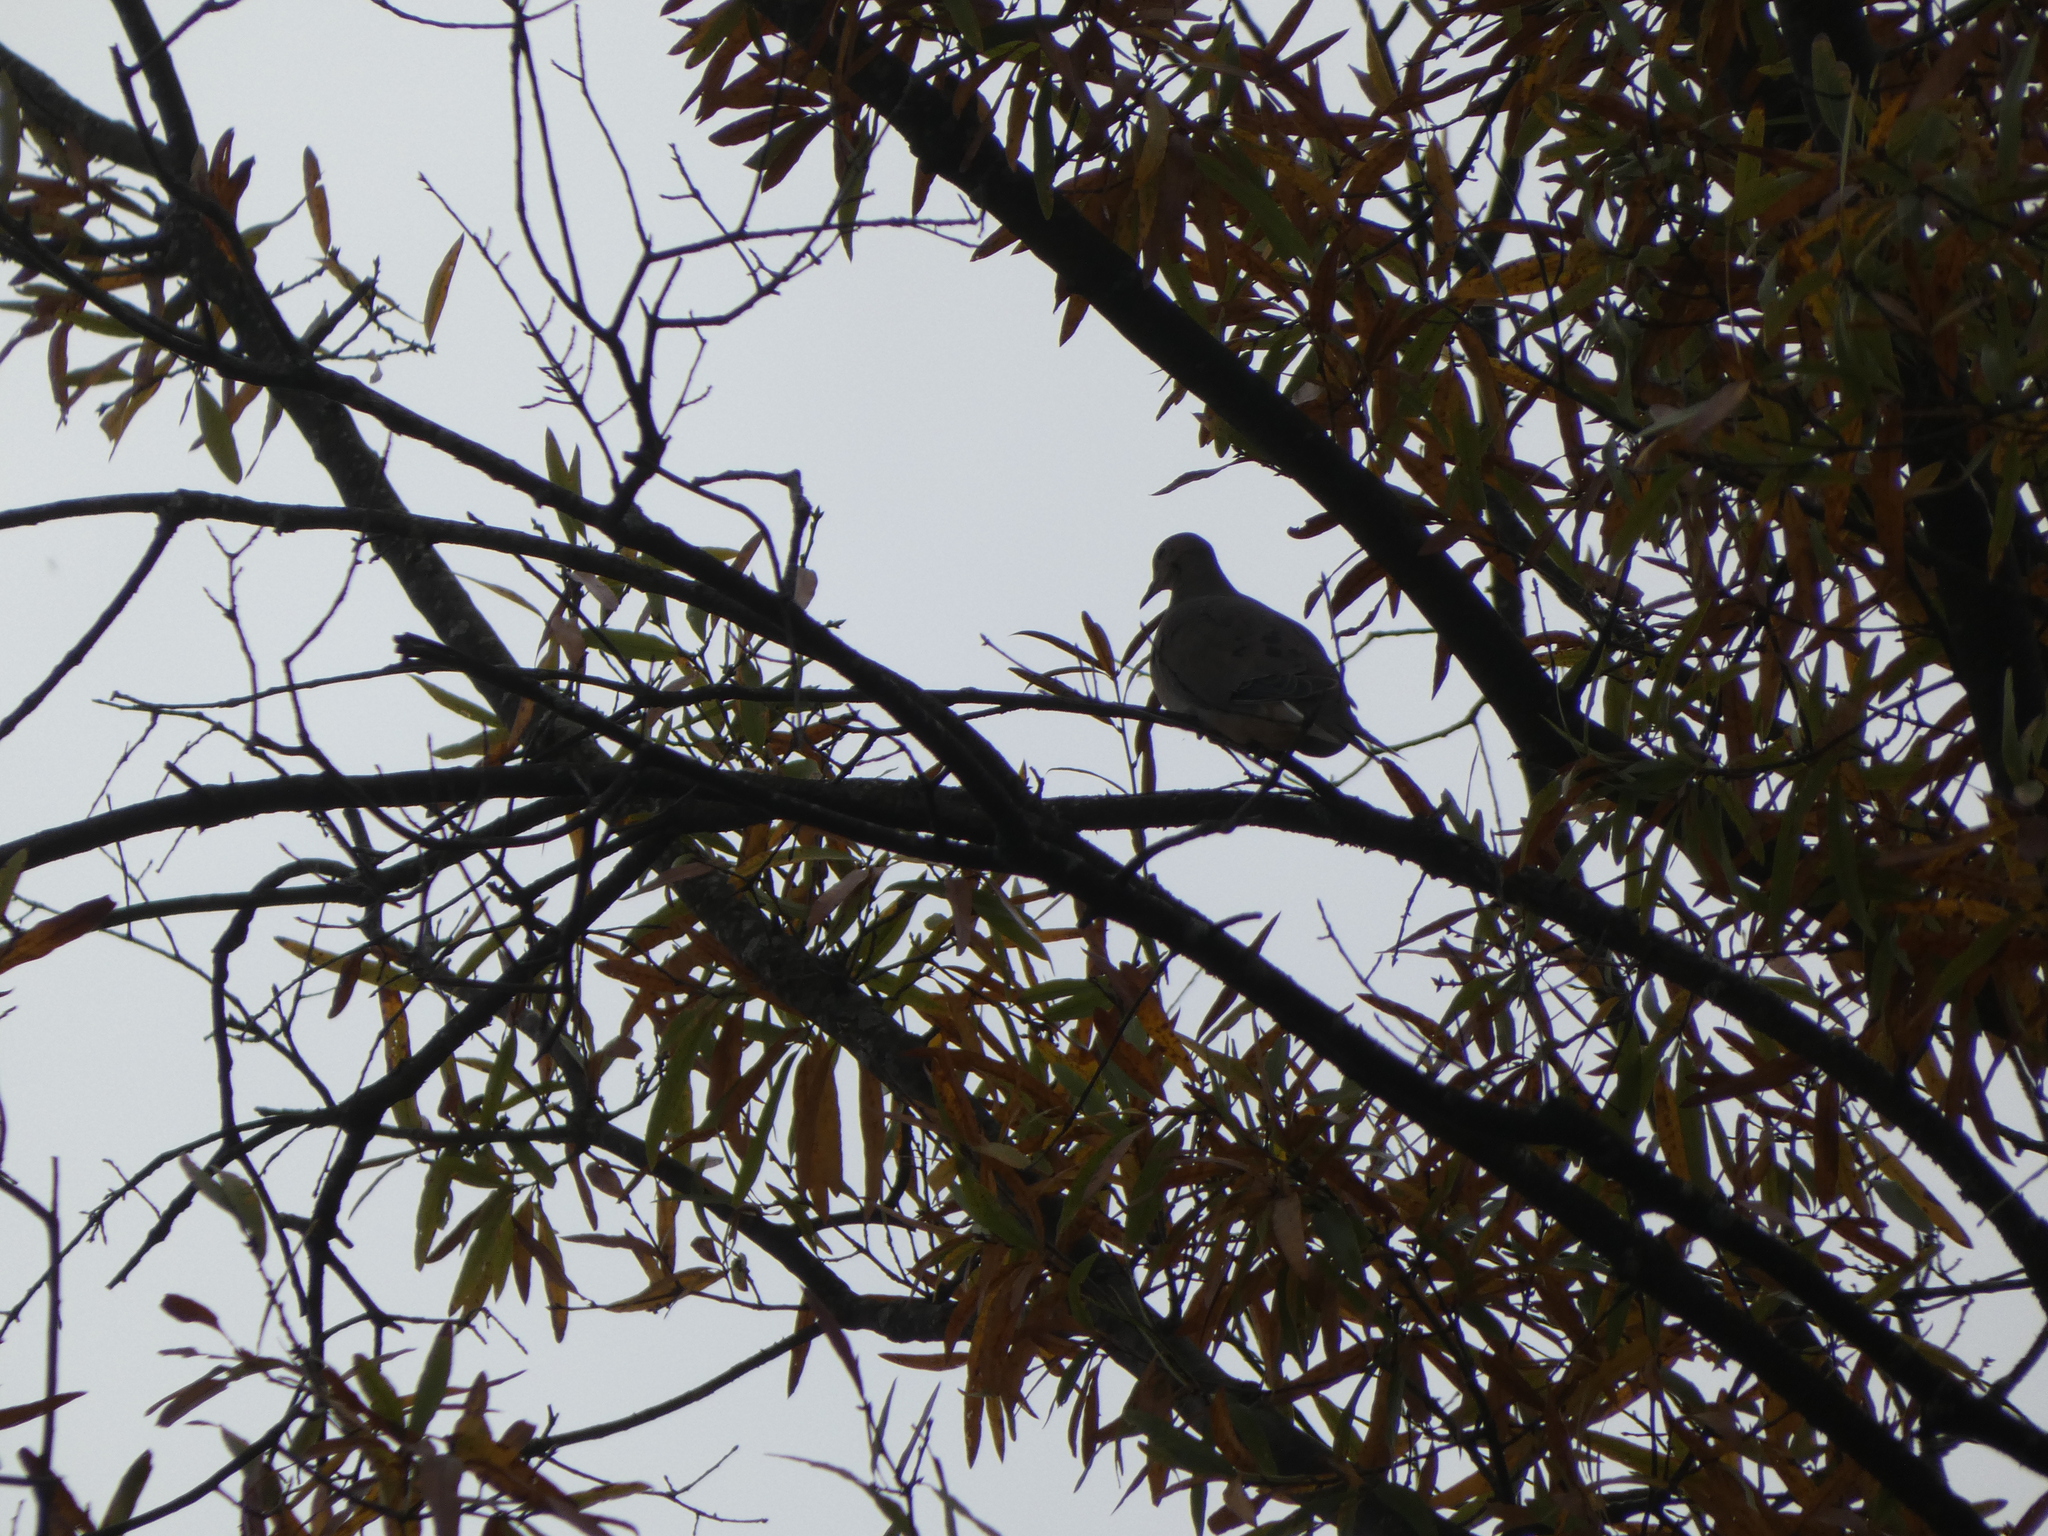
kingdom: Animalia
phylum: Chordata
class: Aves
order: Columbiformes
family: Columbidae
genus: Zenaida
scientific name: Zenaida macroura
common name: Mourning dove
